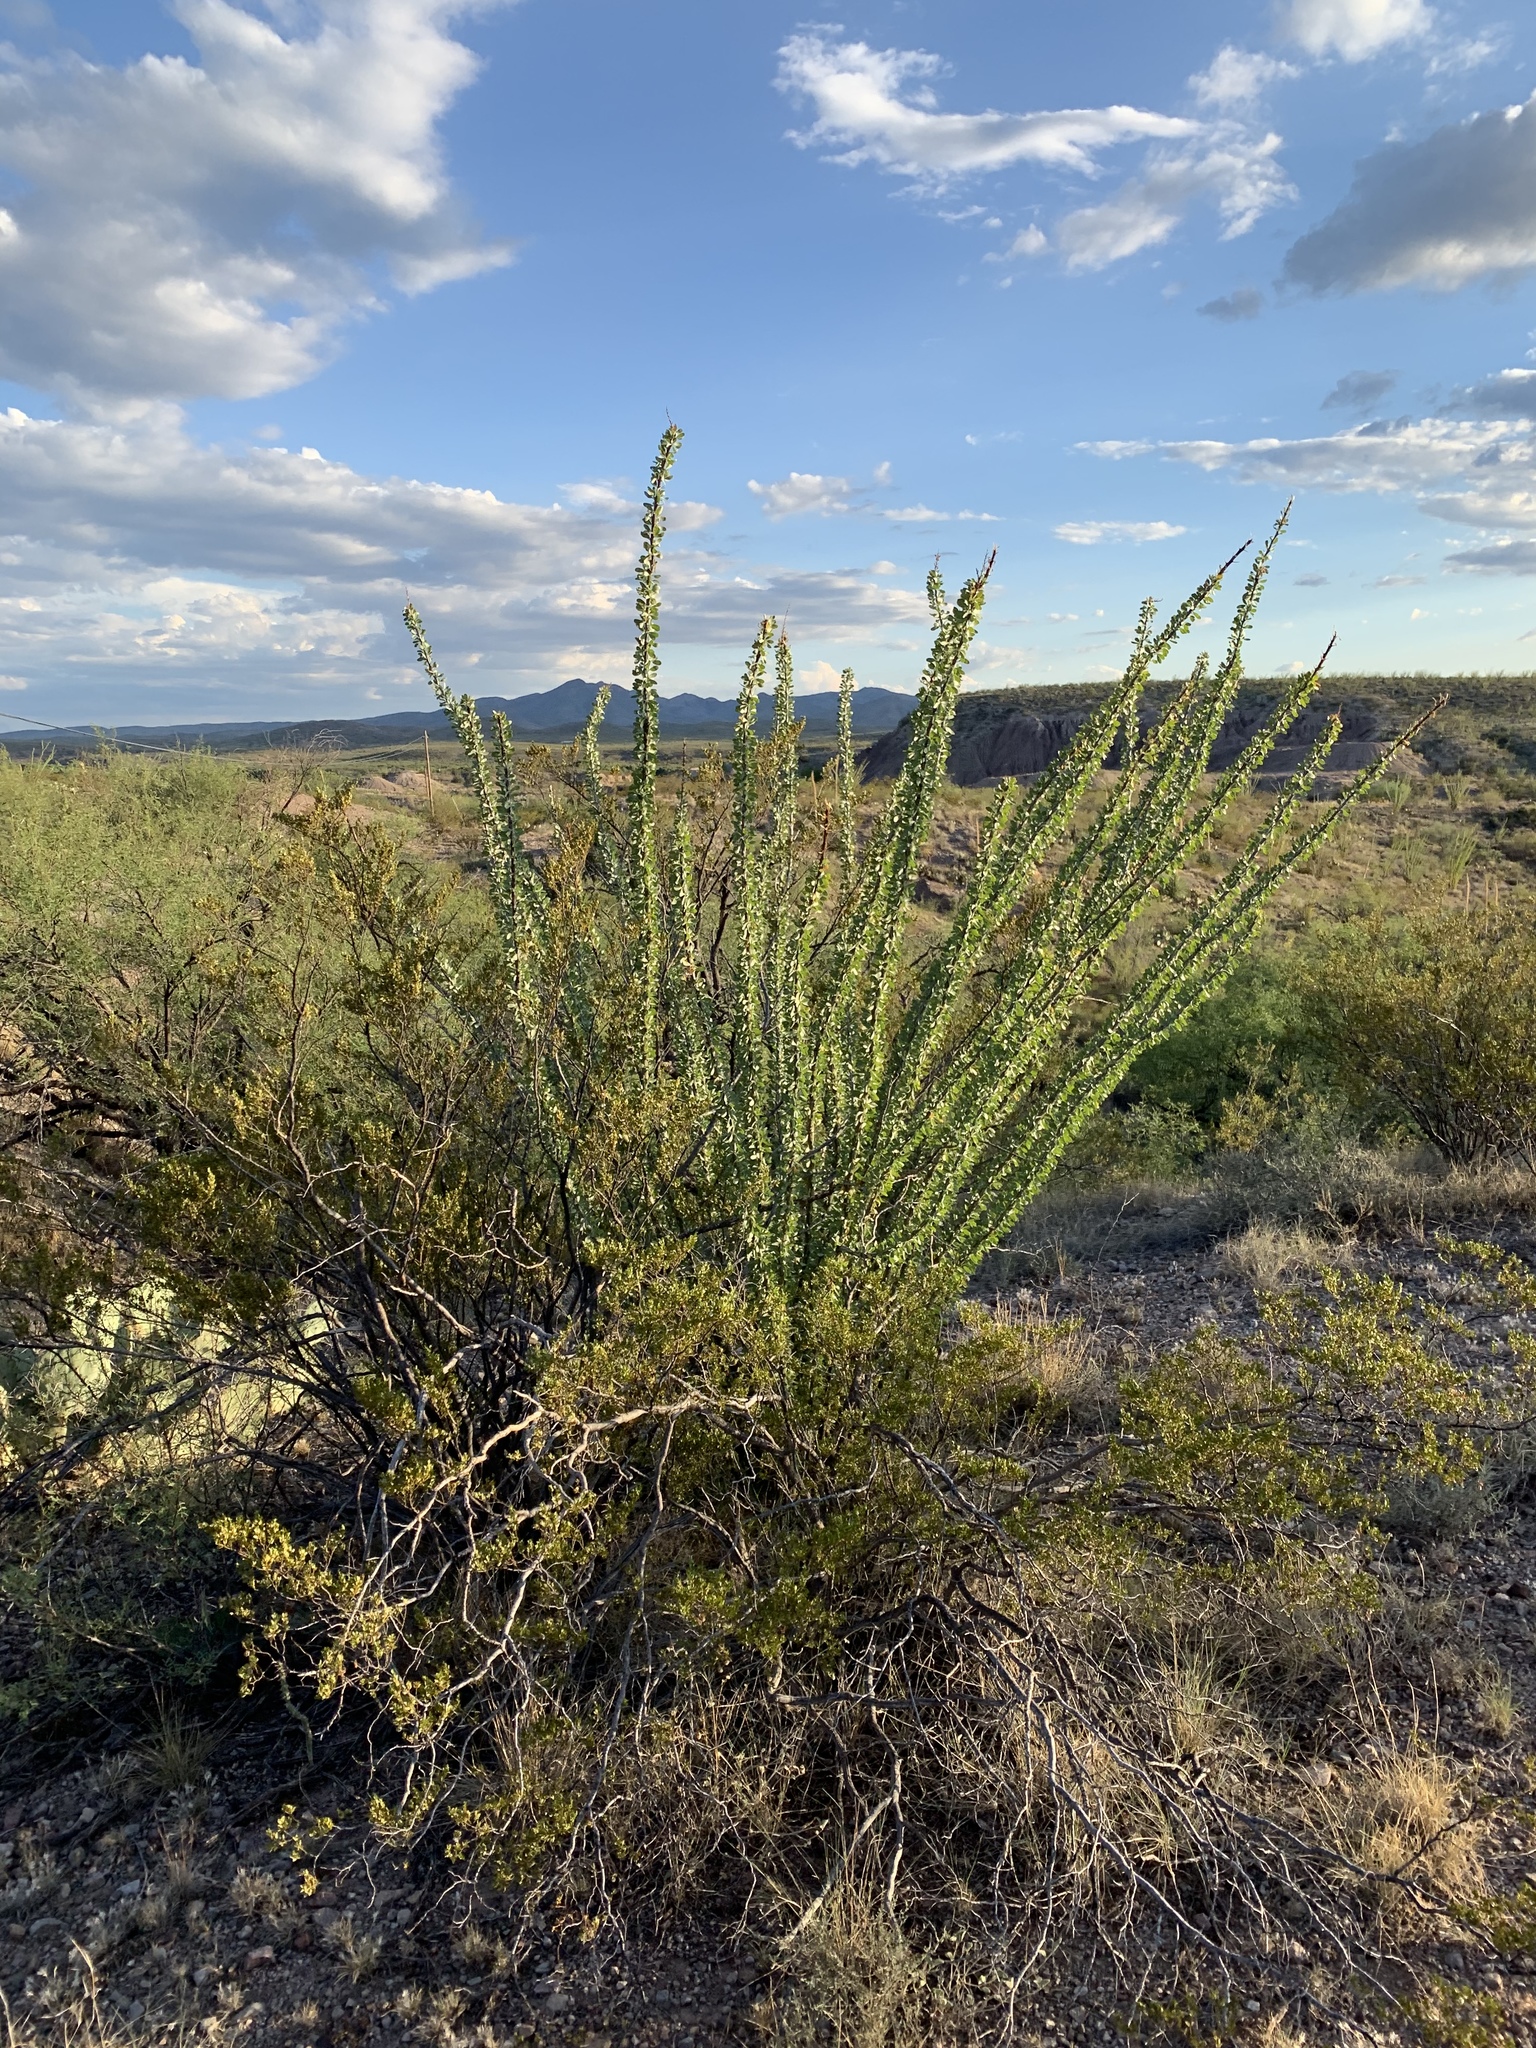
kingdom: Plantae
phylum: Tracheophyta
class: Magnoliopsida
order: Ericales
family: Fouquieriaceae
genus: Fouquieria
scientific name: Fouquieria splendens
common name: Vine-cactus
